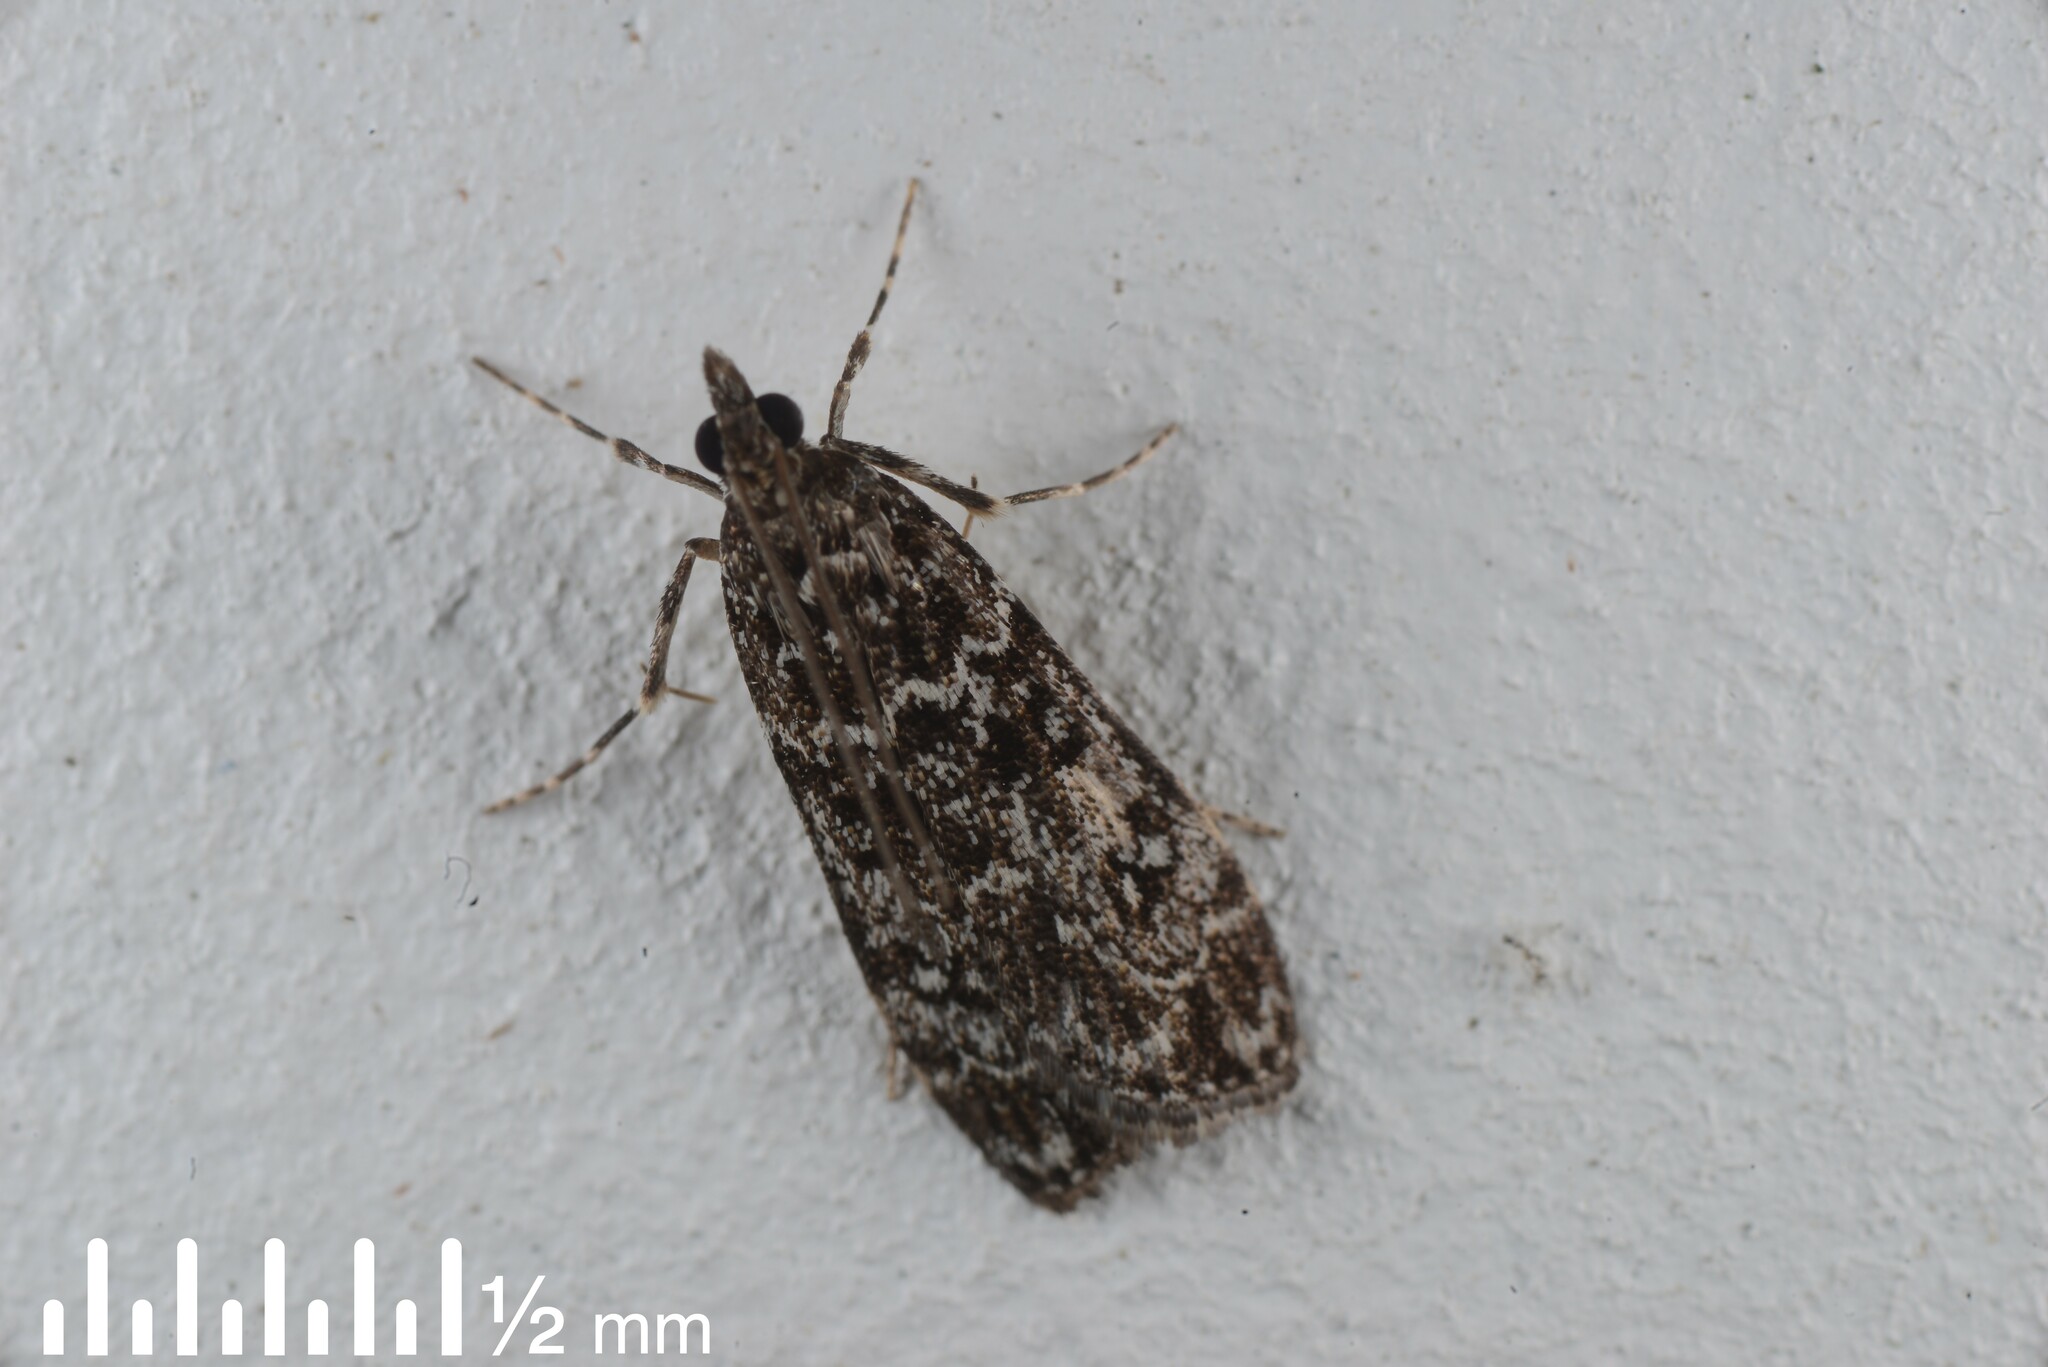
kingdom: Animalia
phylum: Arthropoda
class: Insecta
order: Lepidoptera
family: Crambidae
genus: Eudonia
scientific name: Eudonia philerga
